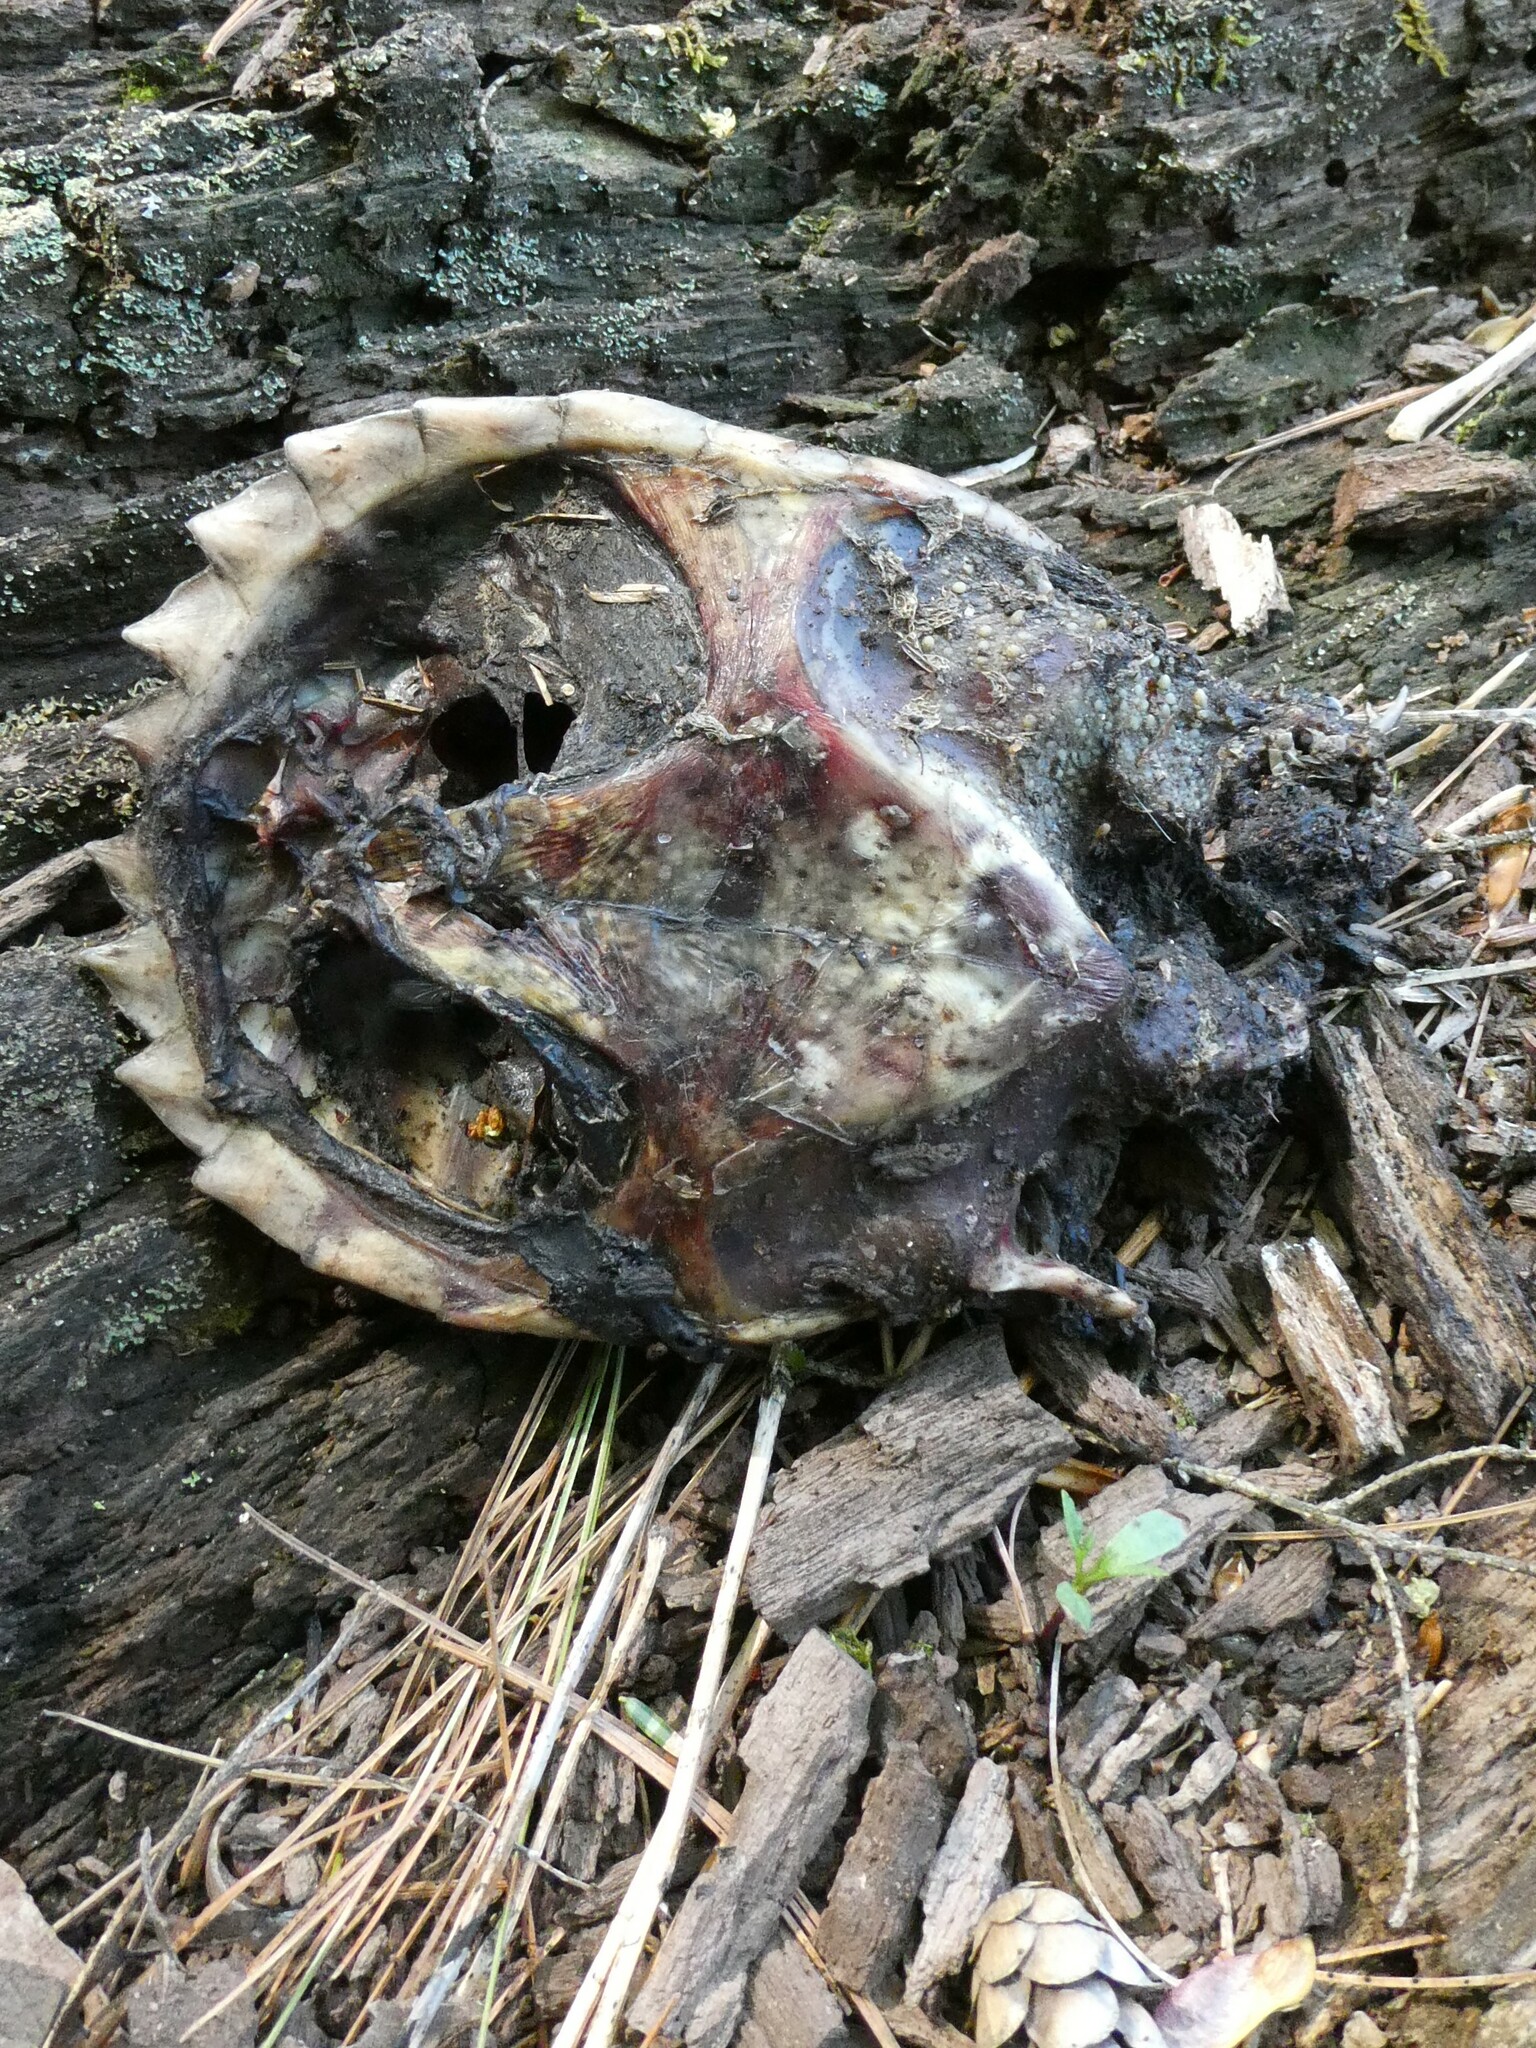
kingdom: Animalia
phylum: Chordata
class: Testudines
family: Chelydridae
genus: Chelydra
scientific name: Chelydra serpentina
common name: Common snapping turtle
